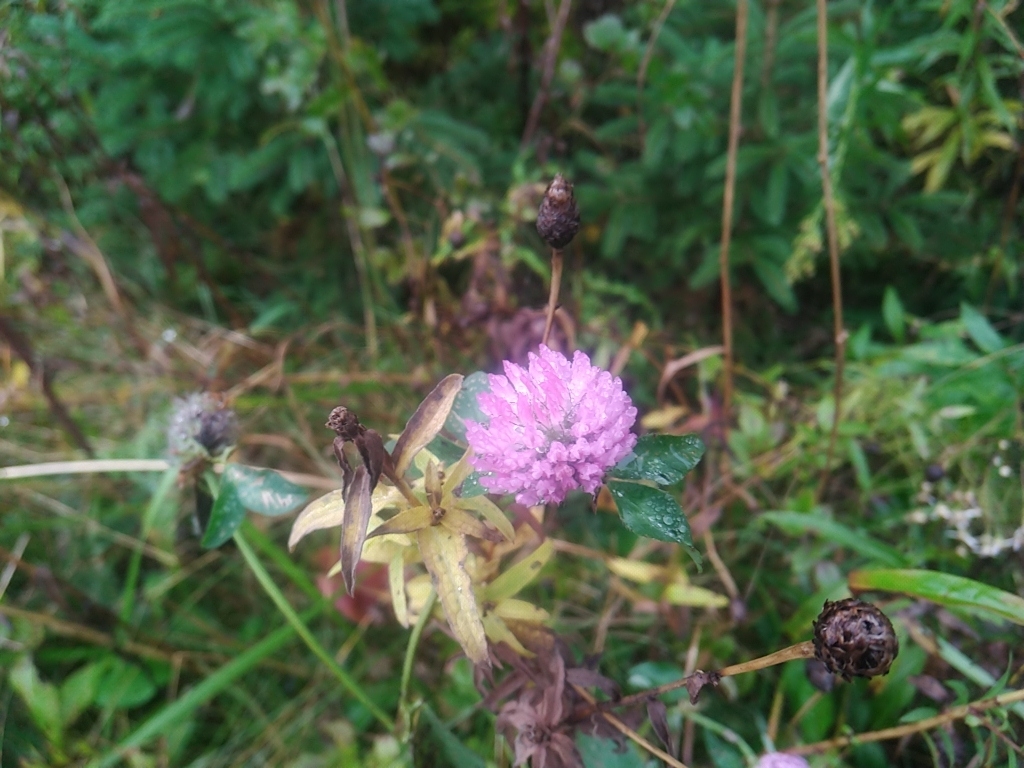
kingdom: Plantae
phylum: Tracheophyta
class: Magnoliopsida
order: Fabales
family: Fabaceae
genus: Trifolium
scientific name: Trifolium pratense
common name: Red clover
